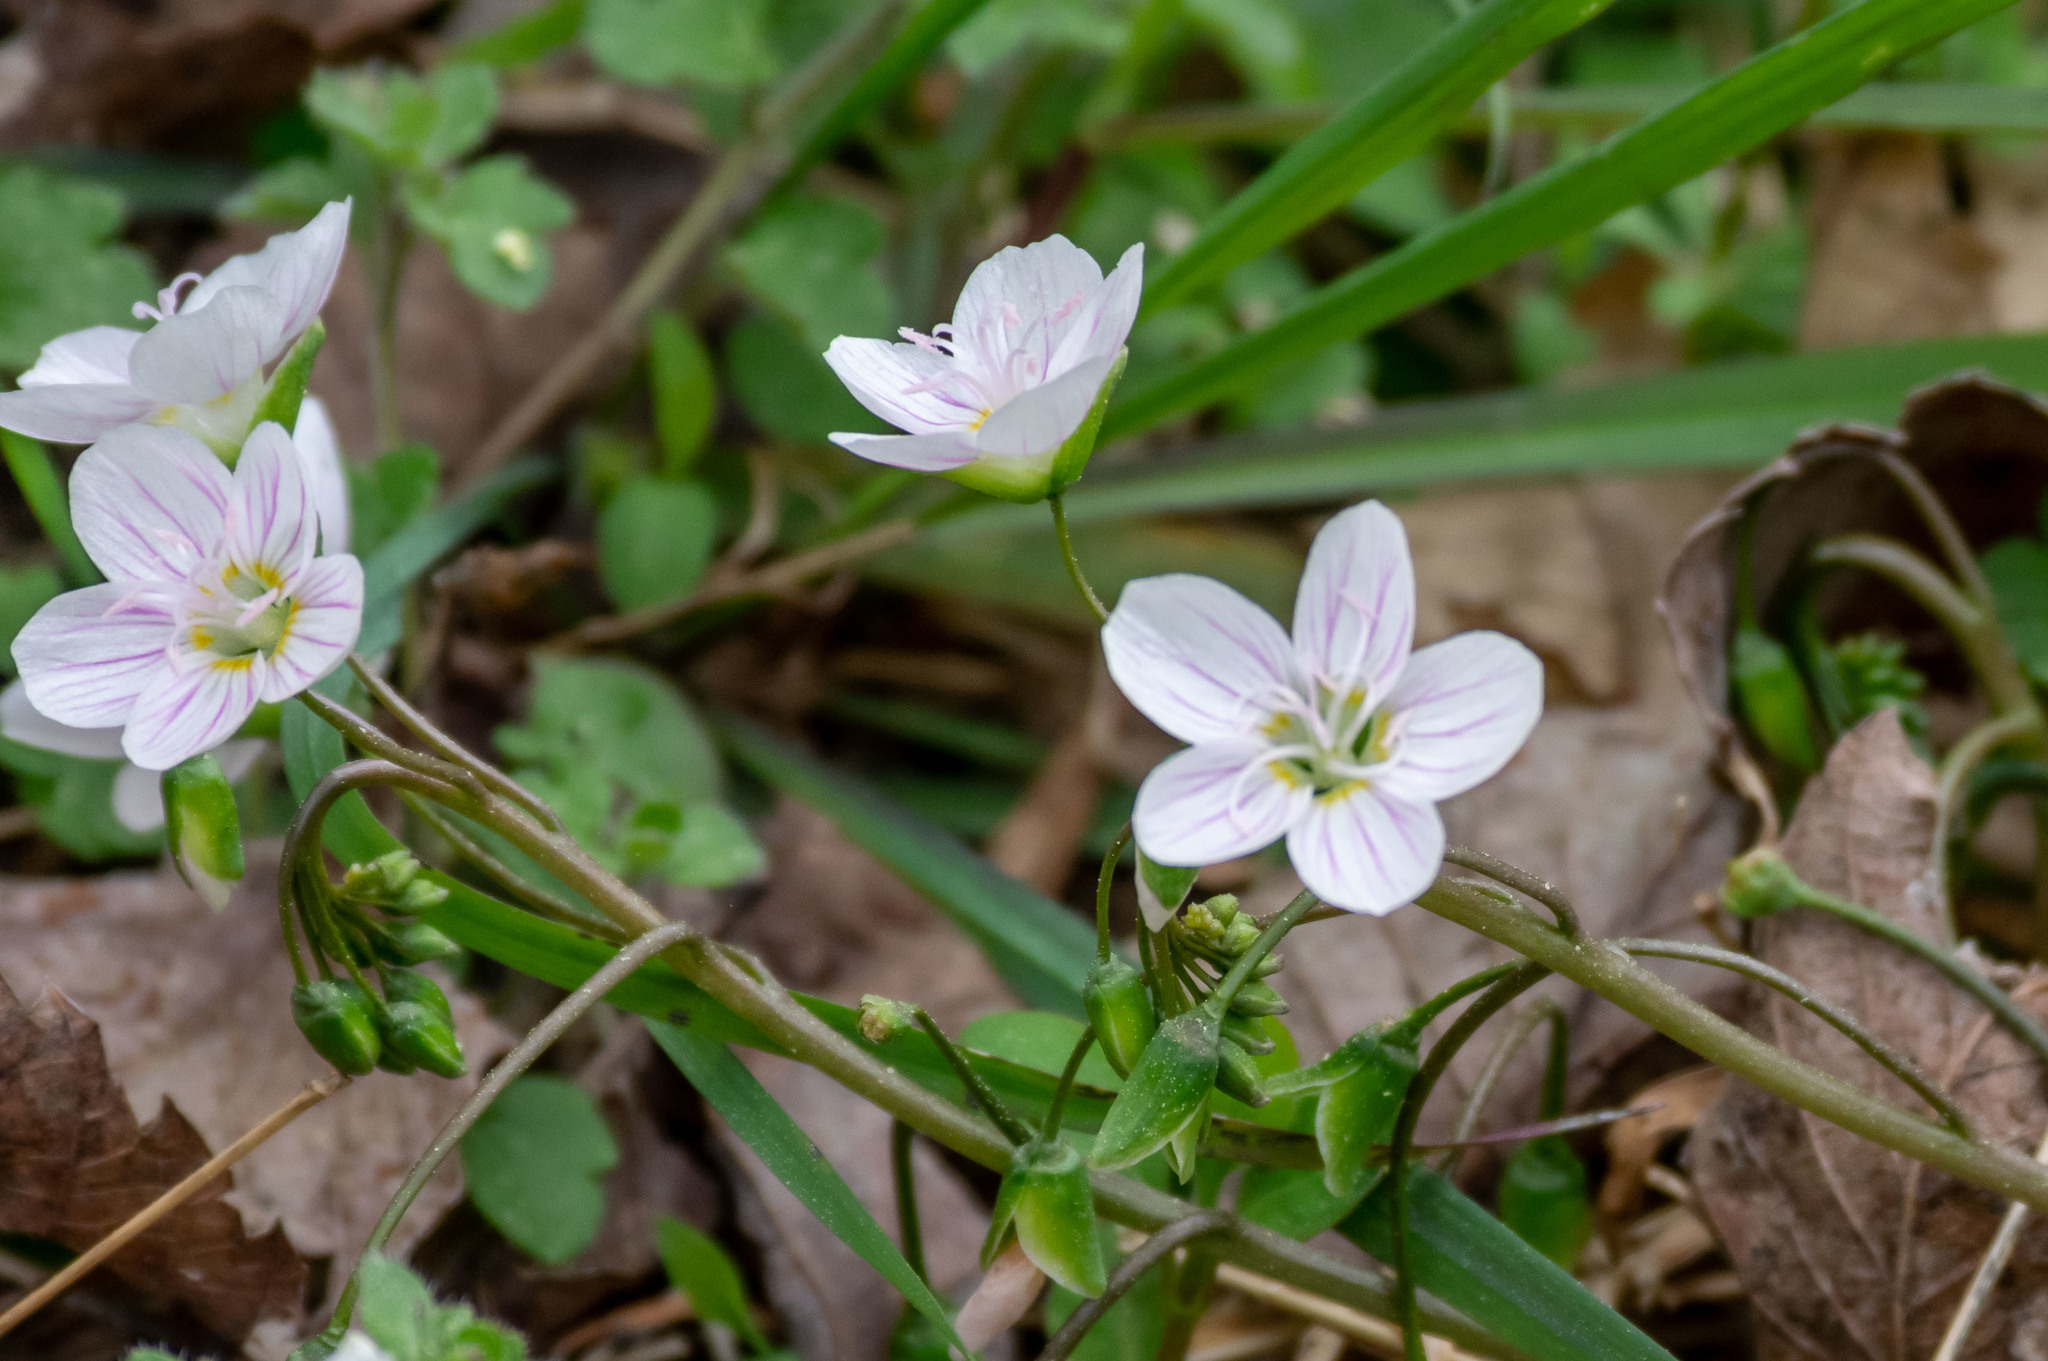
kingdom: Plantae
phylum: Tracheophyta
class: Magnoliopsida
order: Caryophyllales
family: Montiaceae
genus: Claytonia
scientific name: Claytonia virginica
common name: Virginia springbeauty
